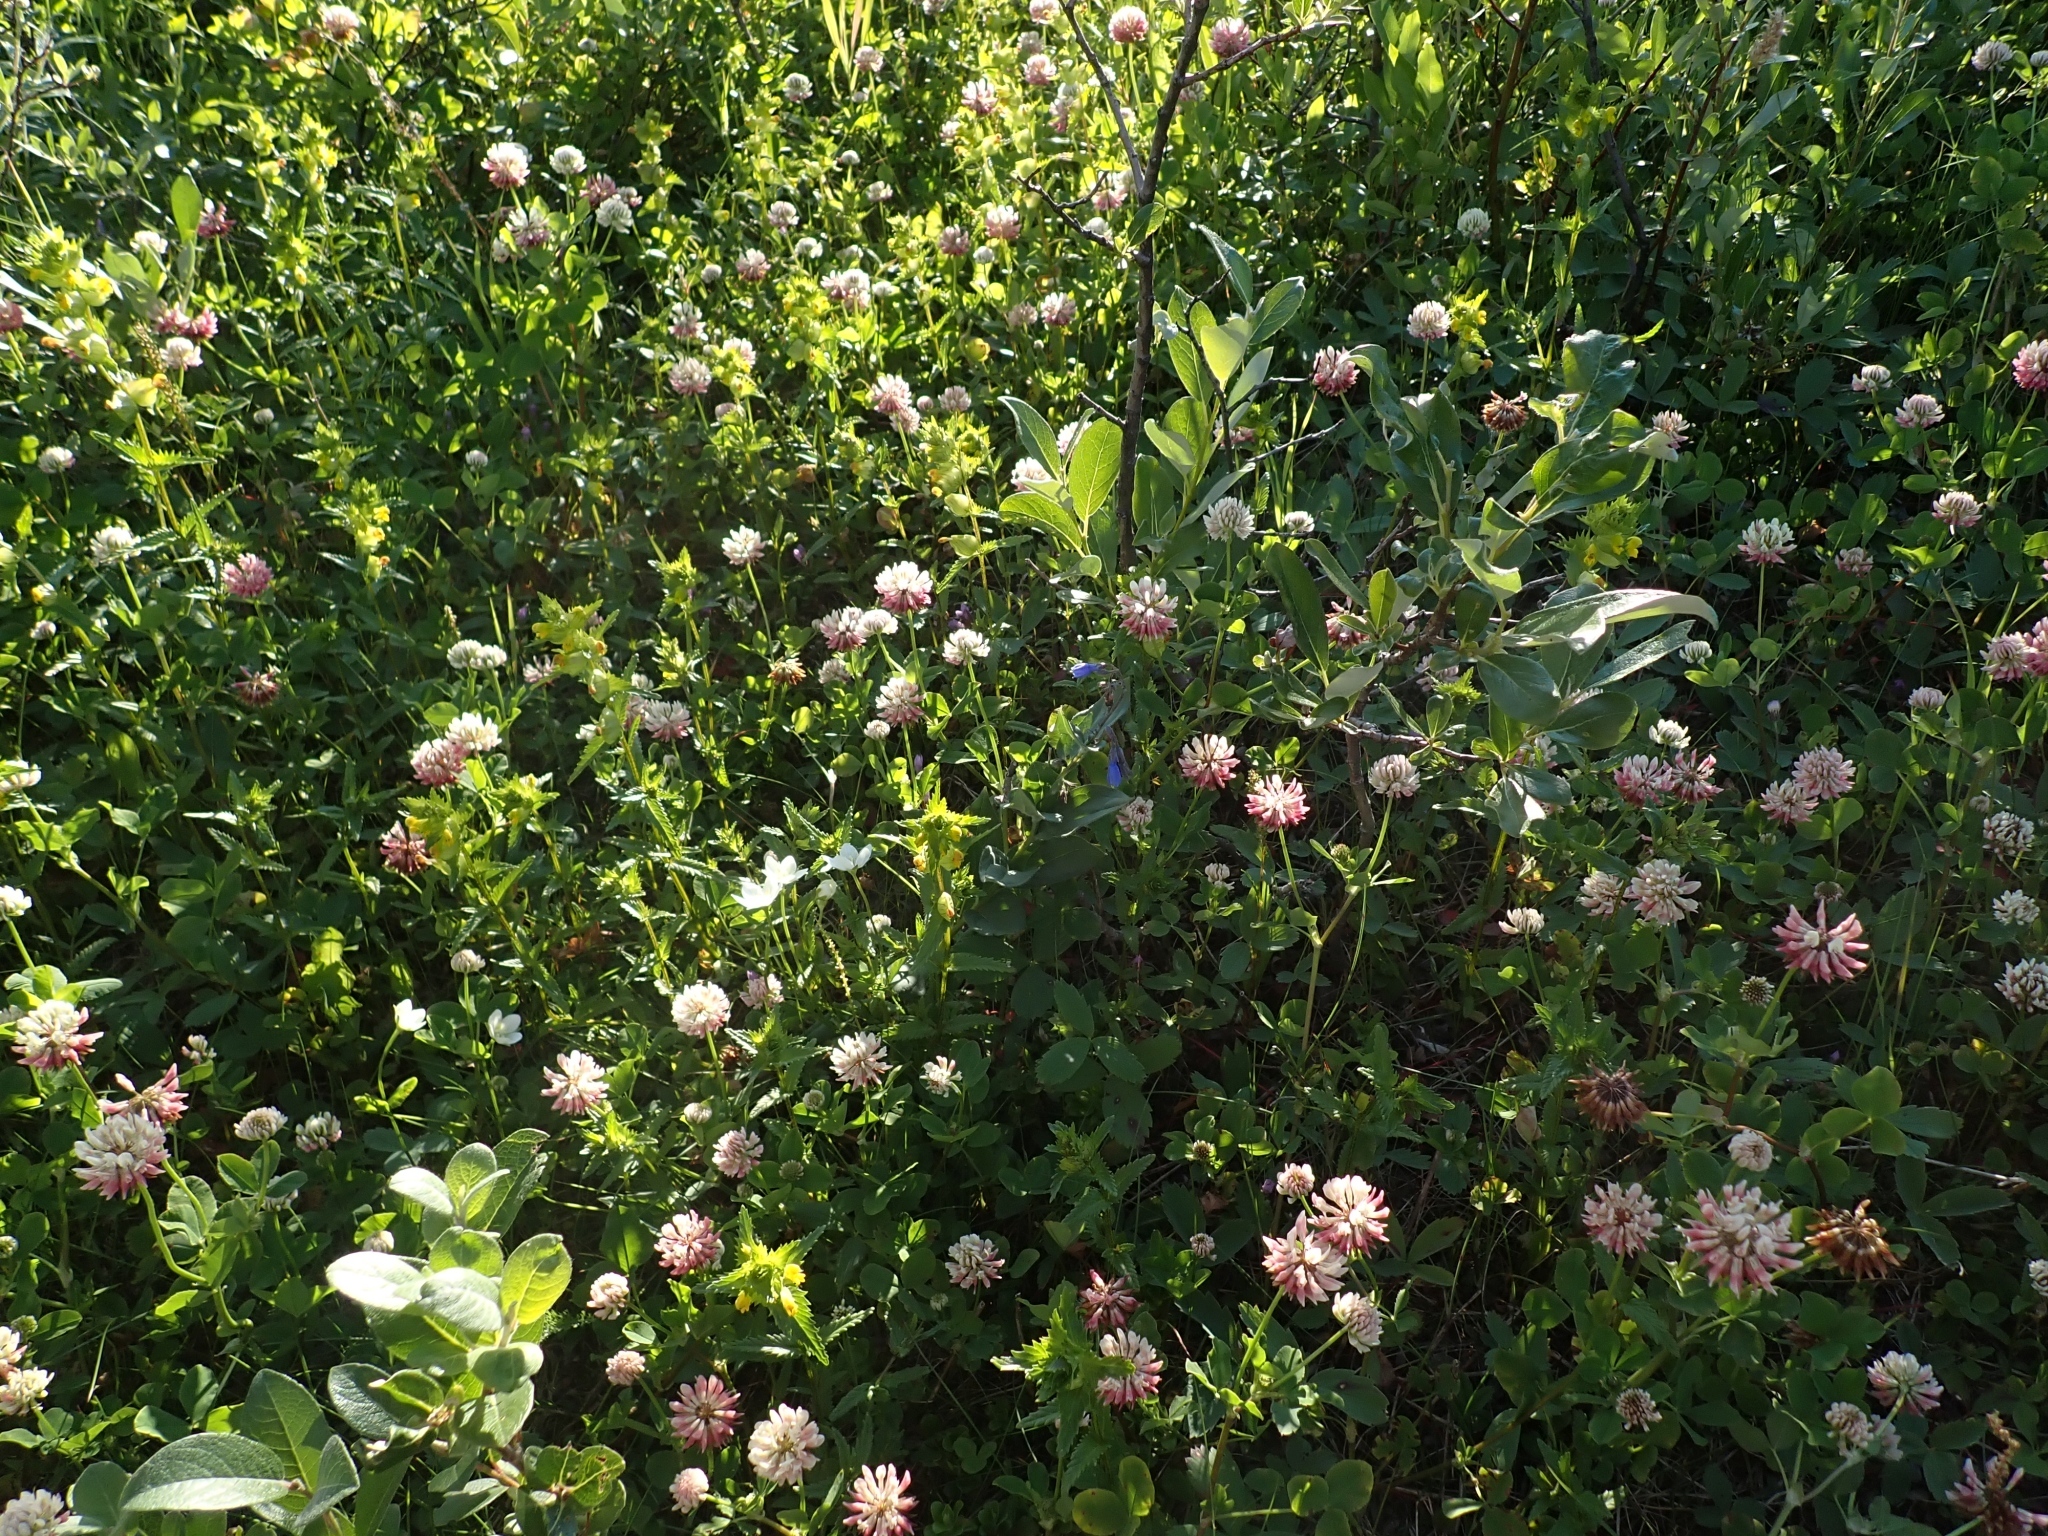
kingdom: Plantae
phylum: Tracheophyta
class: Magnoliopsida
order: Boraginales
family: Boraginaceae
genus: Mertensia
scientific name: Mertensia paniculata
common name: Panicled bluebells
